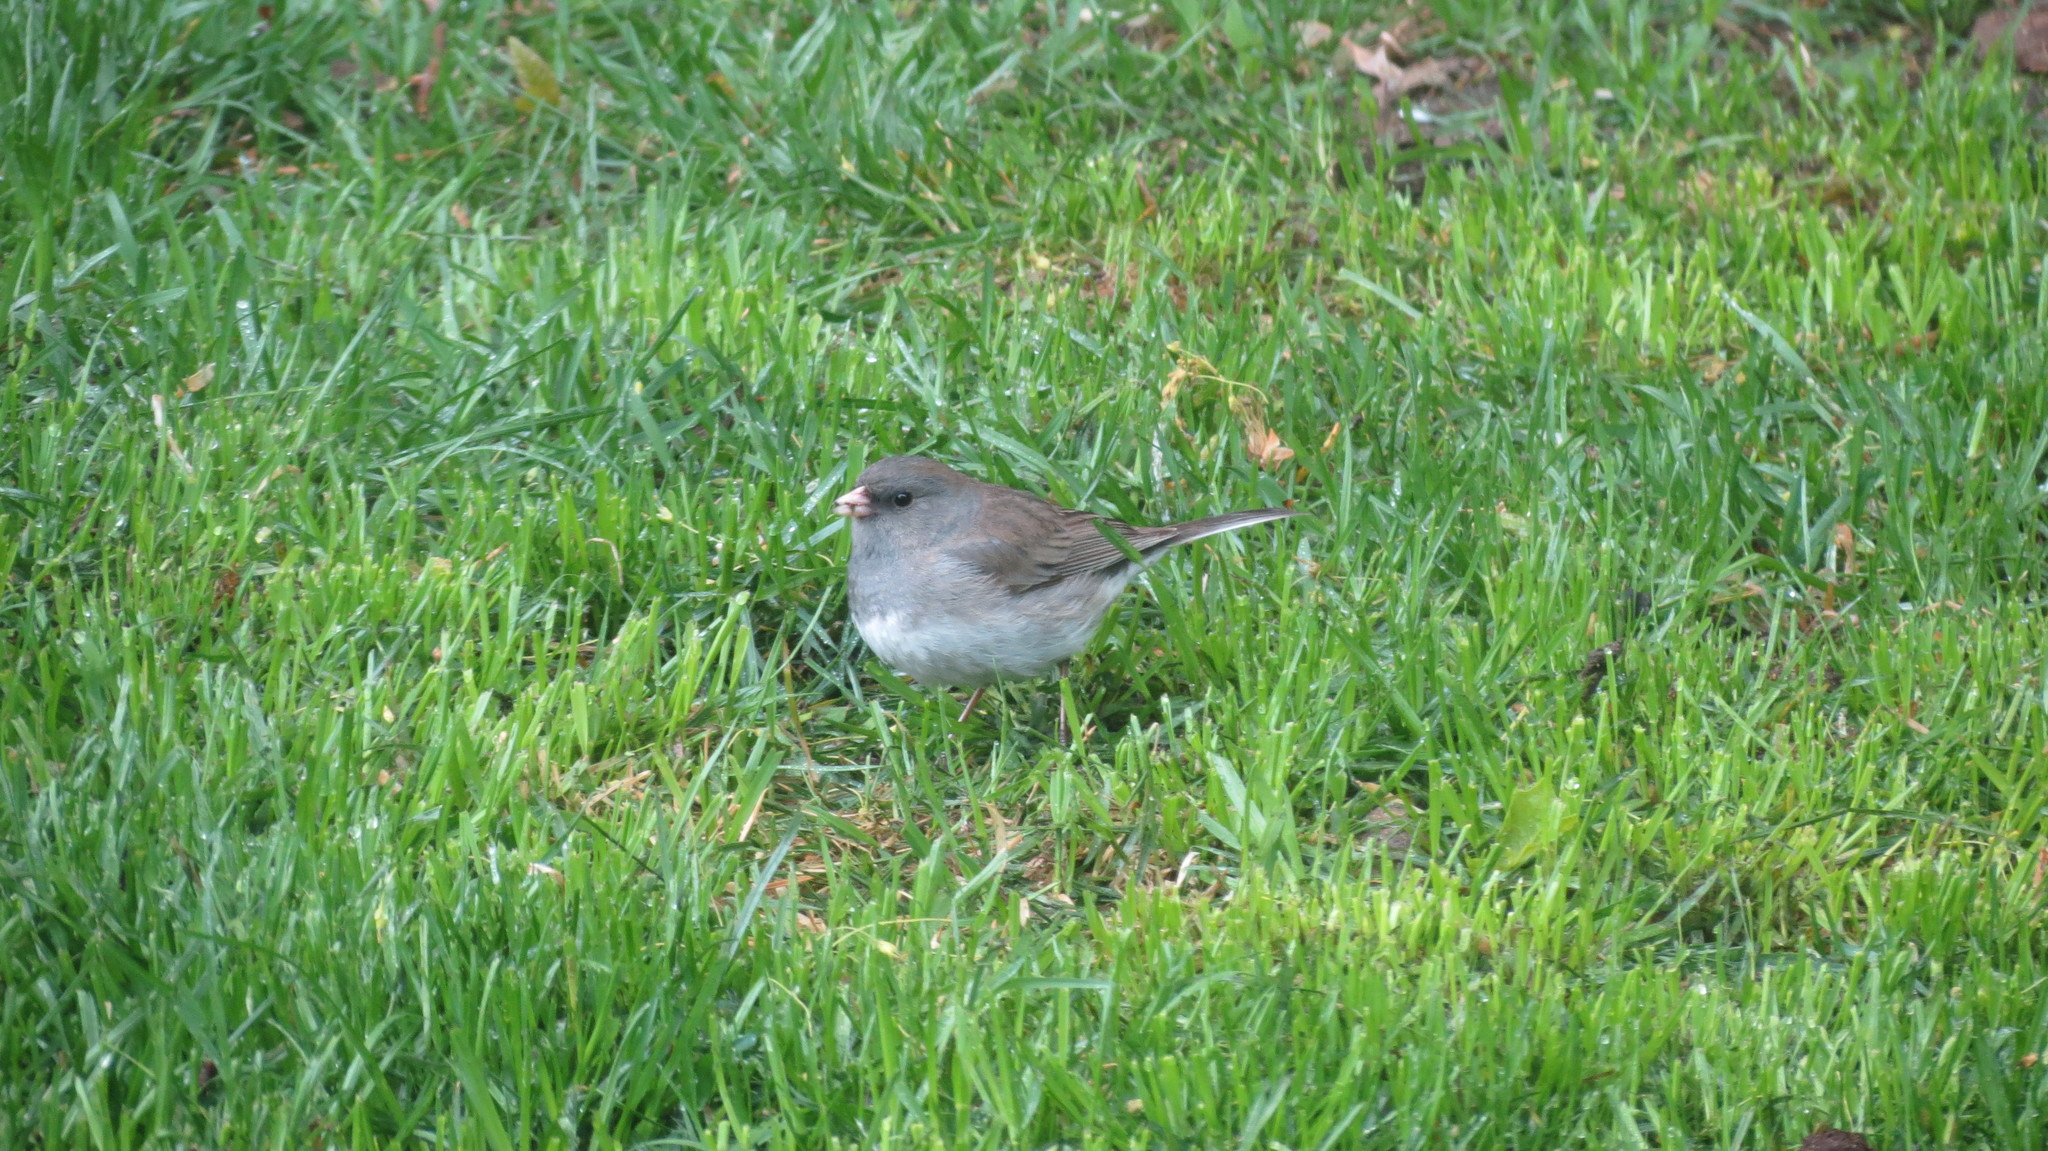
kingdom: Animalia
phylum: Chordata
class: Aves
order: Passeriformes
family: Passerellidae
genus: Junco
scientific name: Junco hyemalis
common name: Dark-eyed junco
